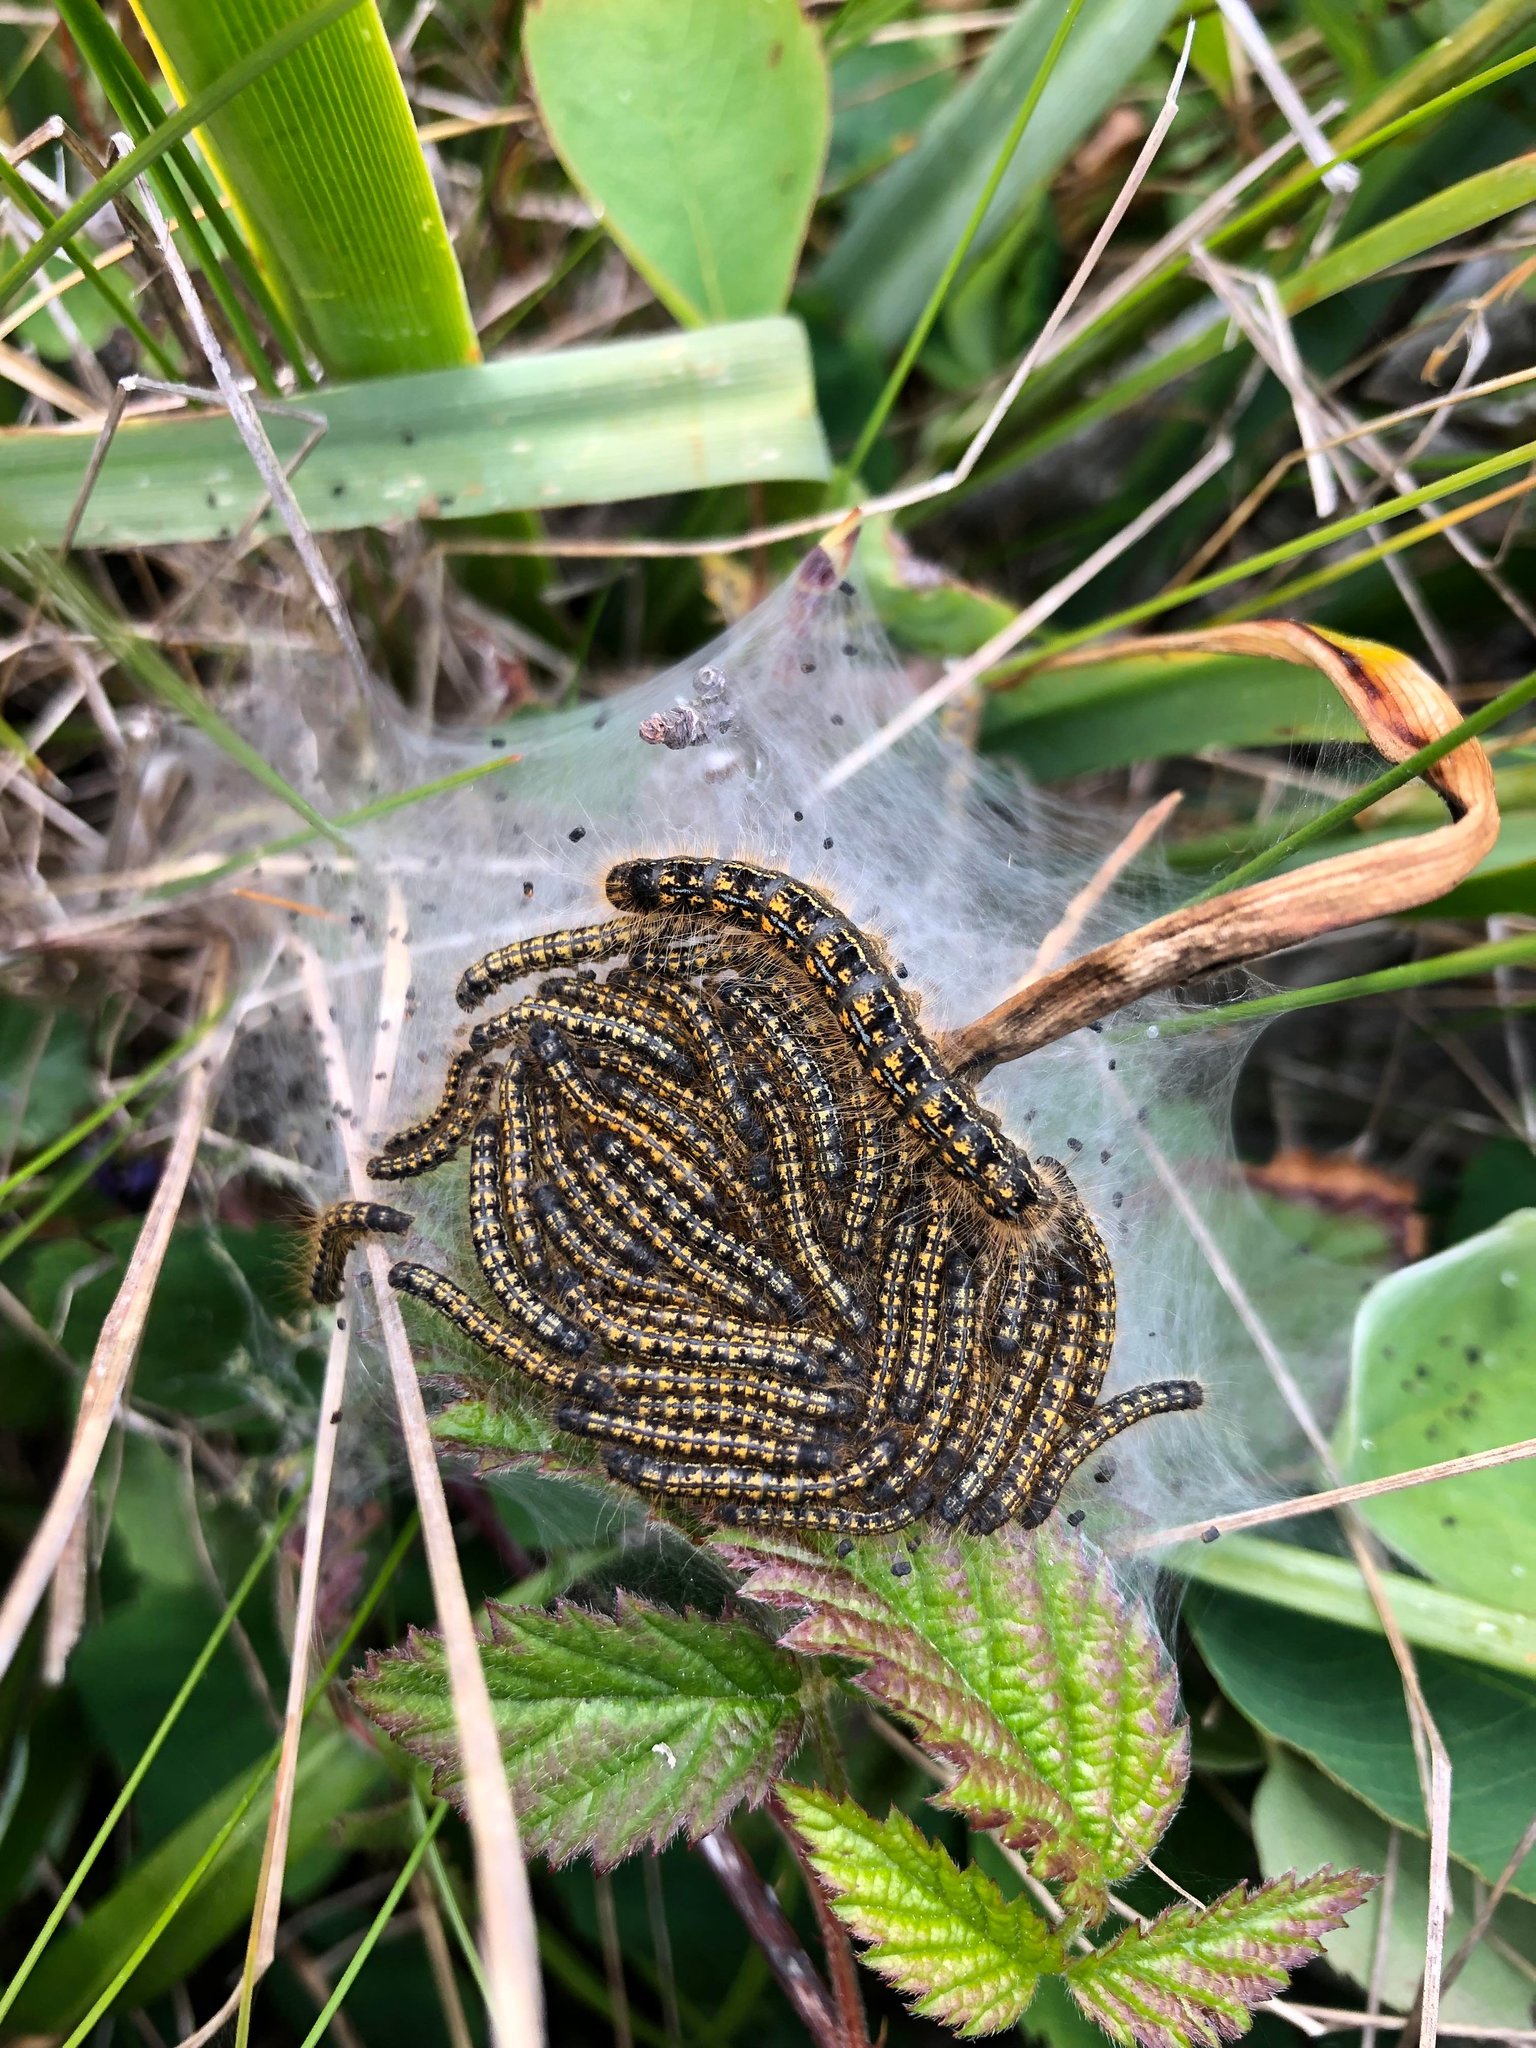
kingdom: Animalia
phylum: Arthropoda
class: Insecta
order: Lepidoptera
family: Lasiocampidae
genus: Malacosoma
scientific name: Malacosoma californica
